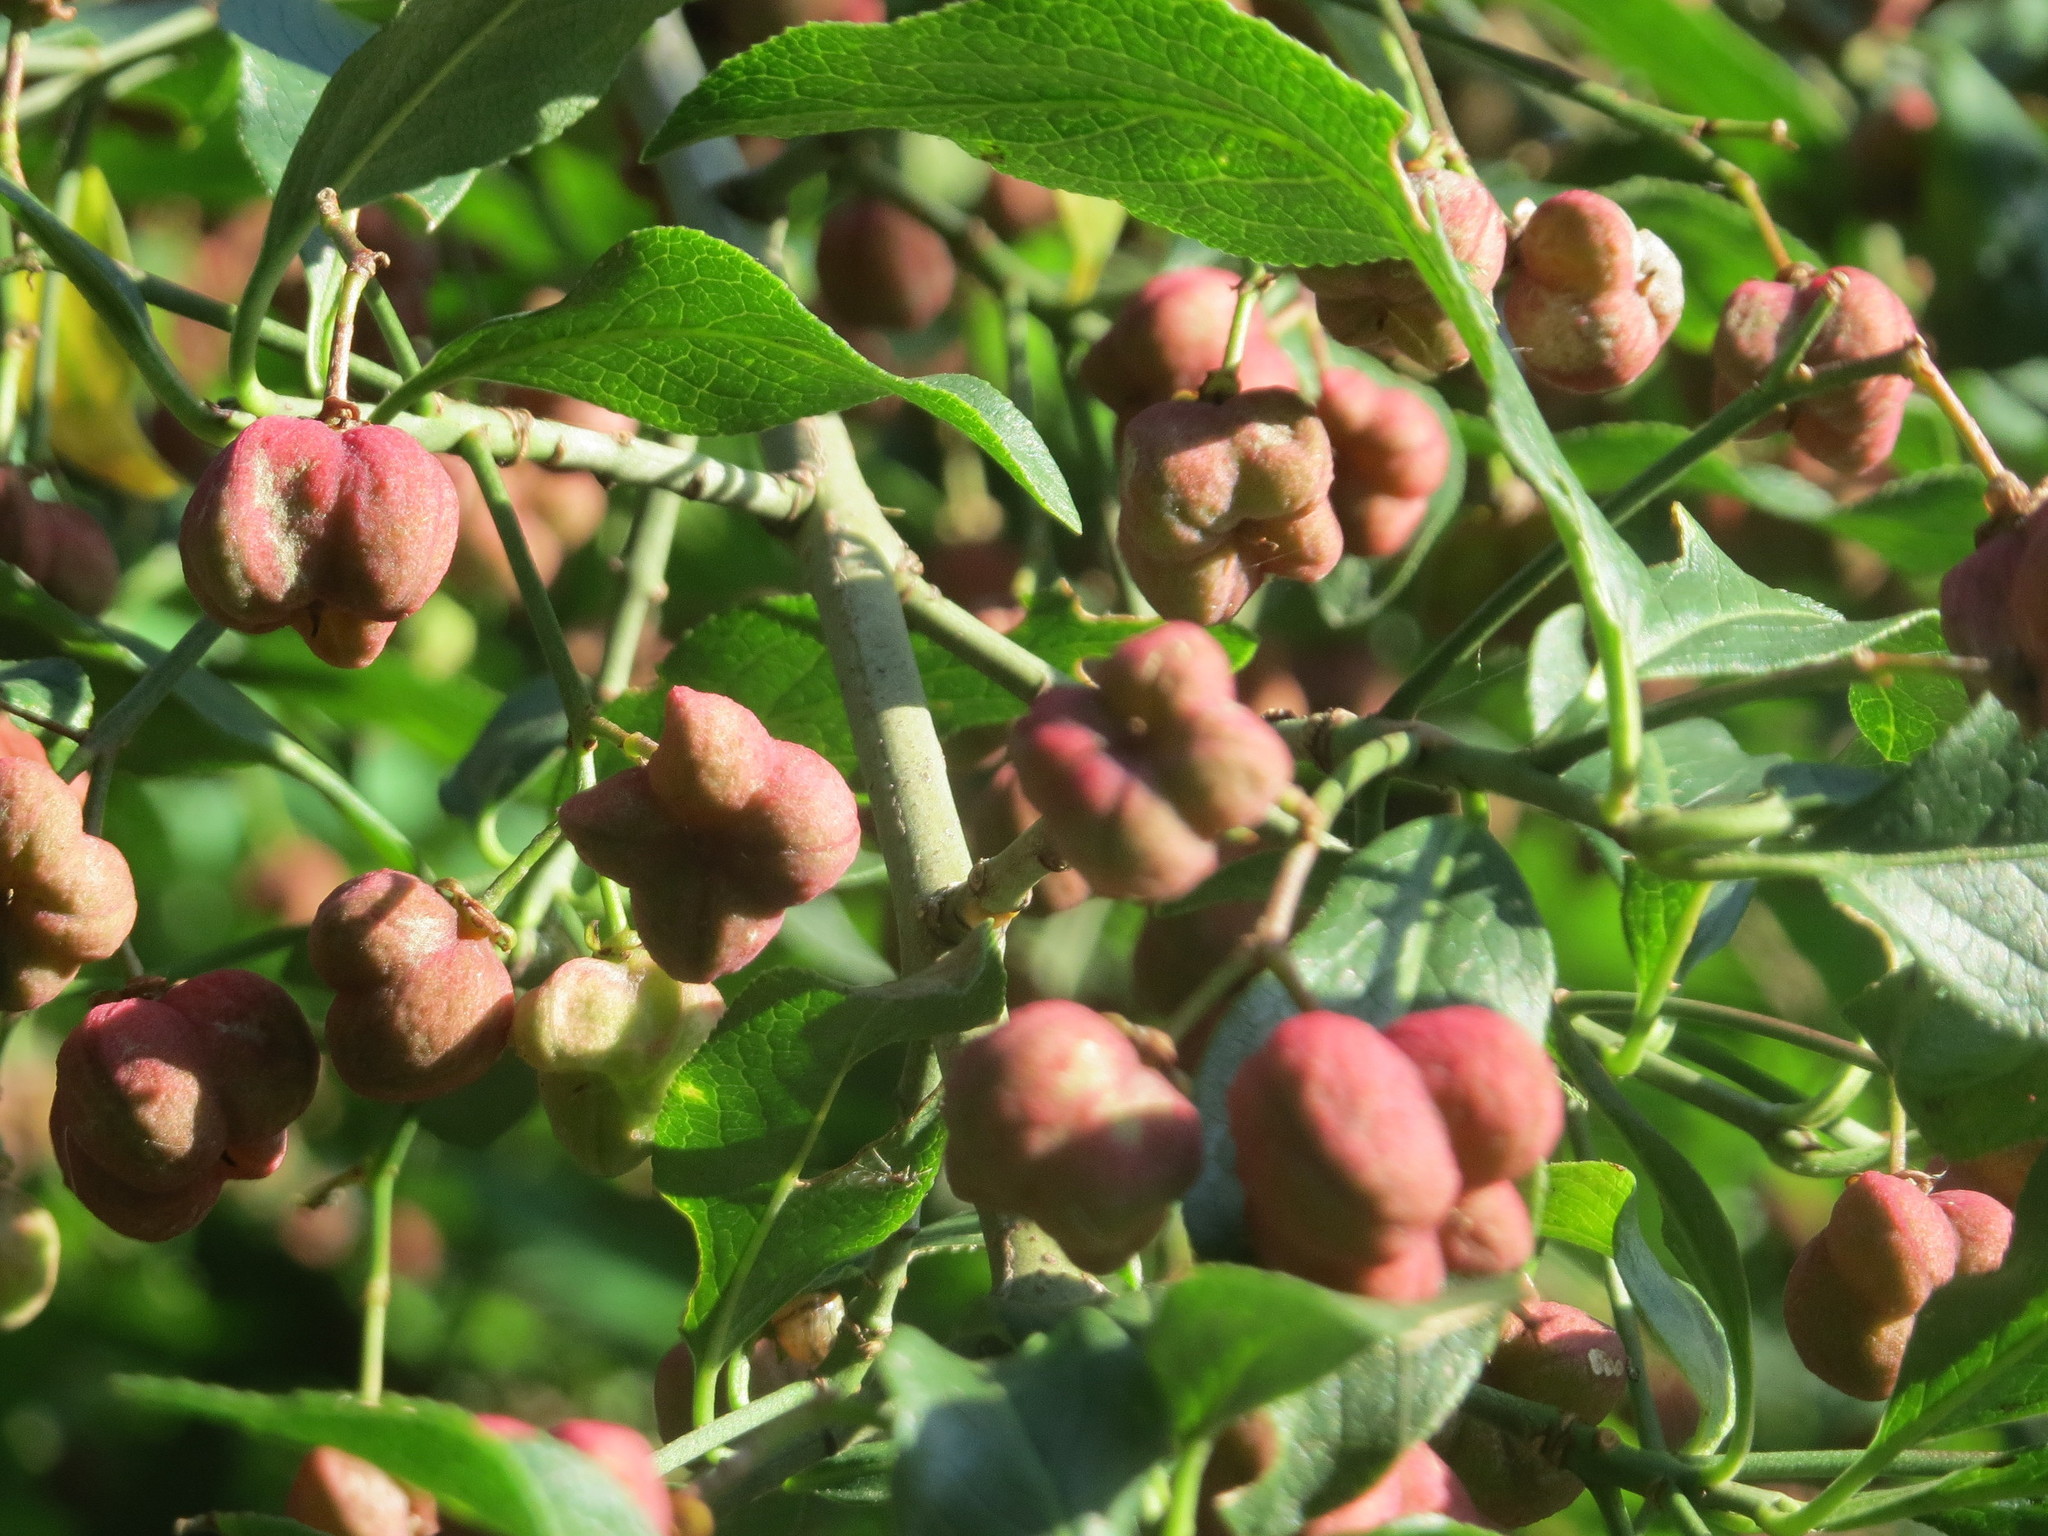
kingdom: Plantae
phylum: Tracheophyta
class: Magnoliopsida
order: Celastrales
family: Celastraceae
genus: Euonymus
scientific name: Euonymus europaeus
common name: Spindle
